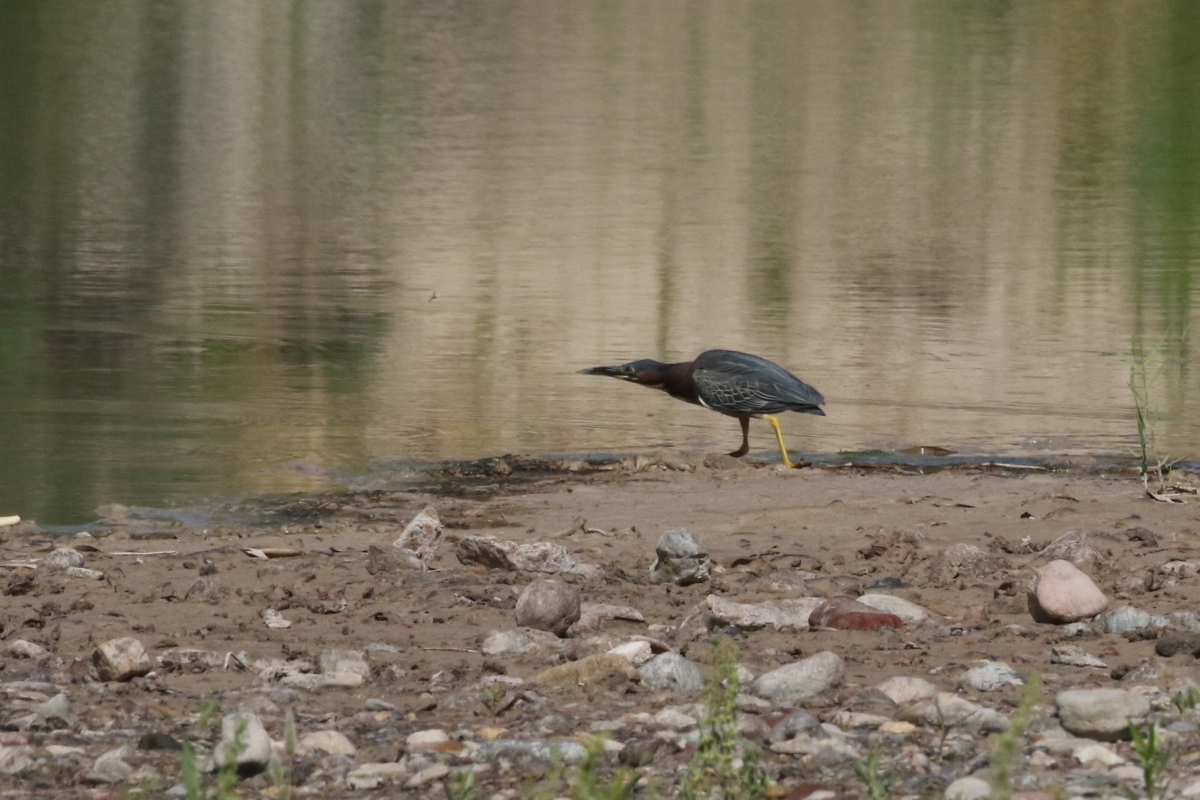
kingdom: Animalia
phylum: Chordata
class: Aves
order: Pelecaniformes
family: Ardeidae
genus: Butorides
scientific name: Butorides virescens
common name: Green heron
